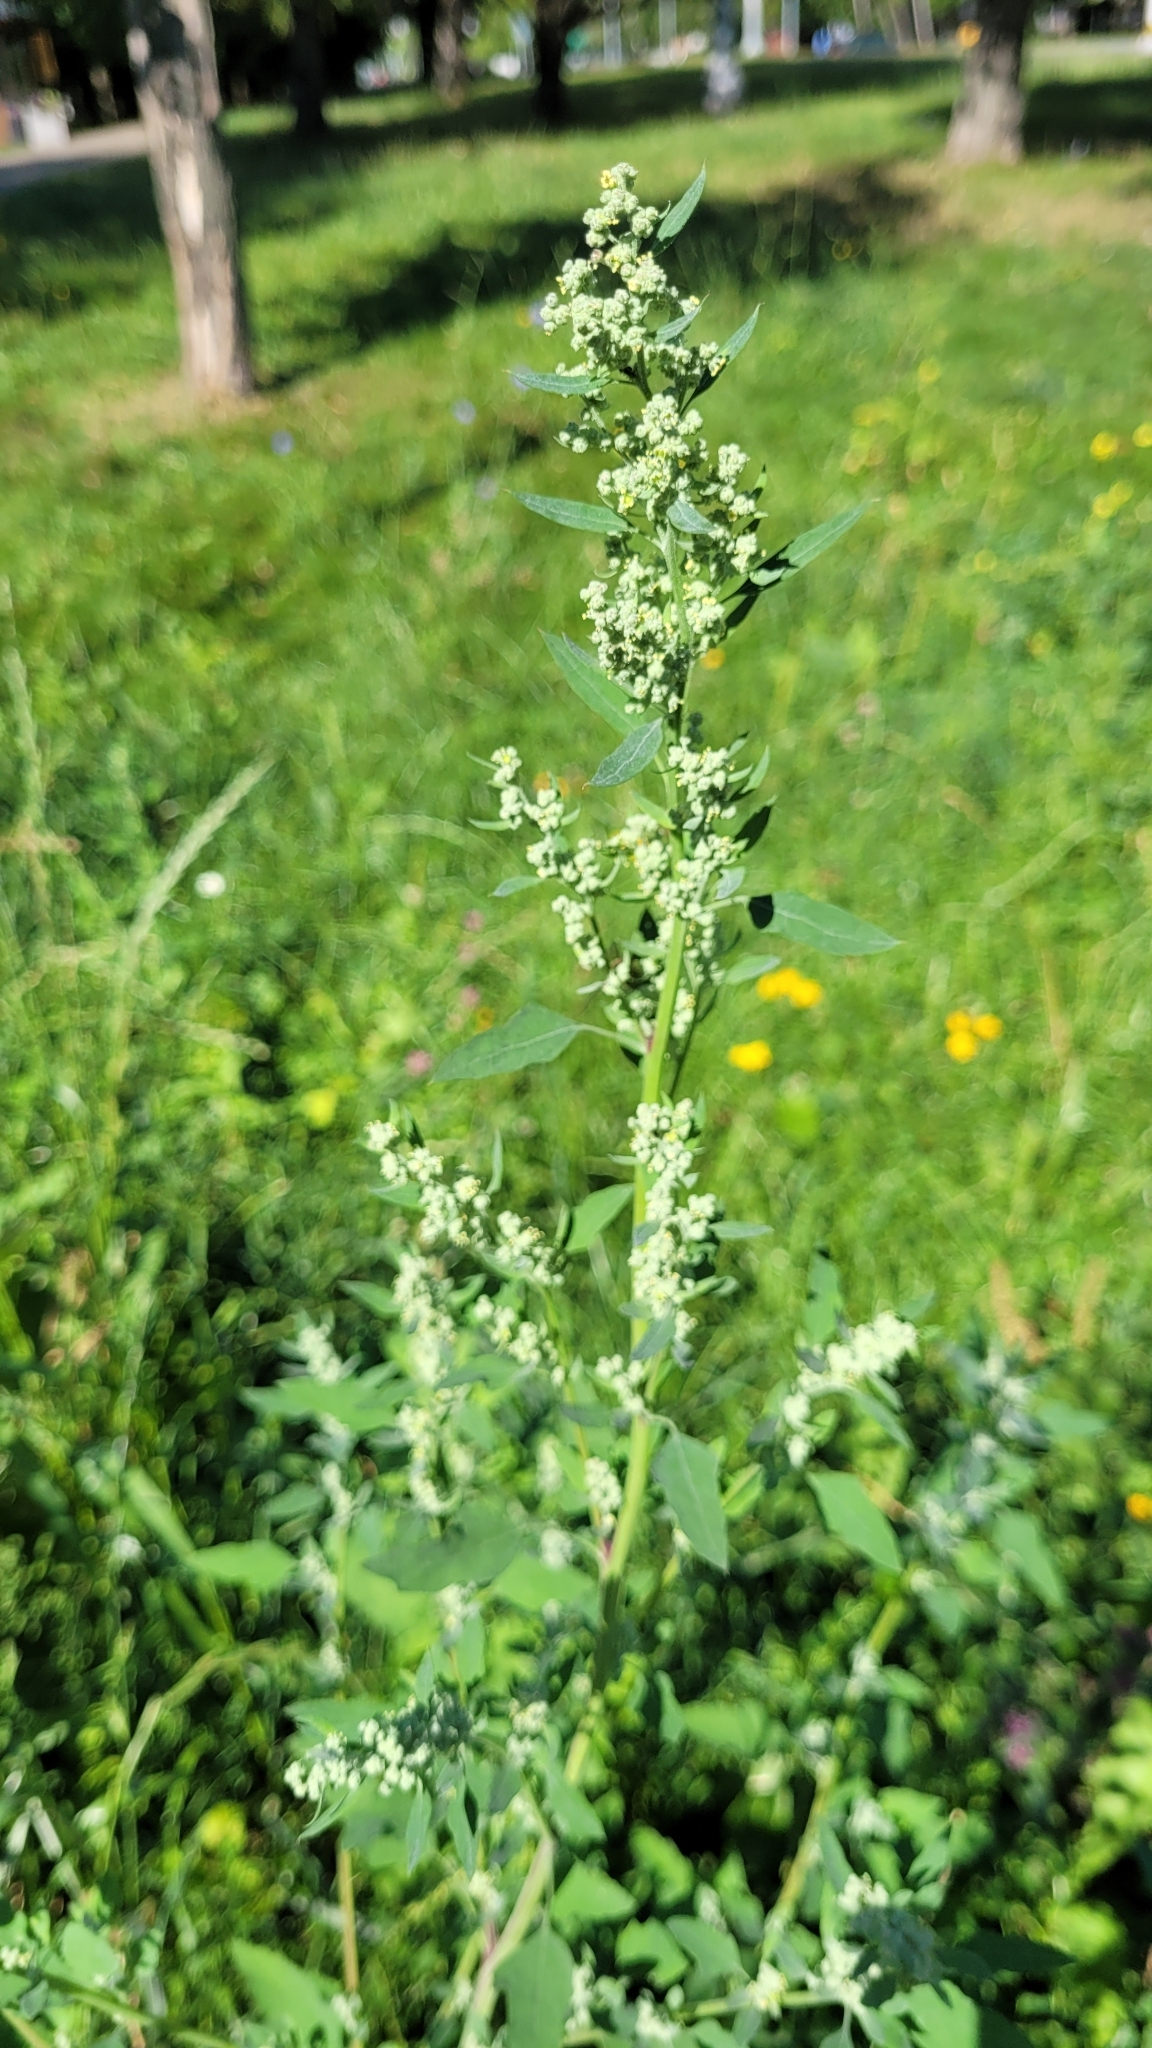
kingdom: Plantae
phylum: Tracheophyta
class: Magnoliopsida
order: Caryophyllales
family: Amaranthaceae
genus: Chenopodium
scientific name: Chenopodium album
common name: Fat-hen
